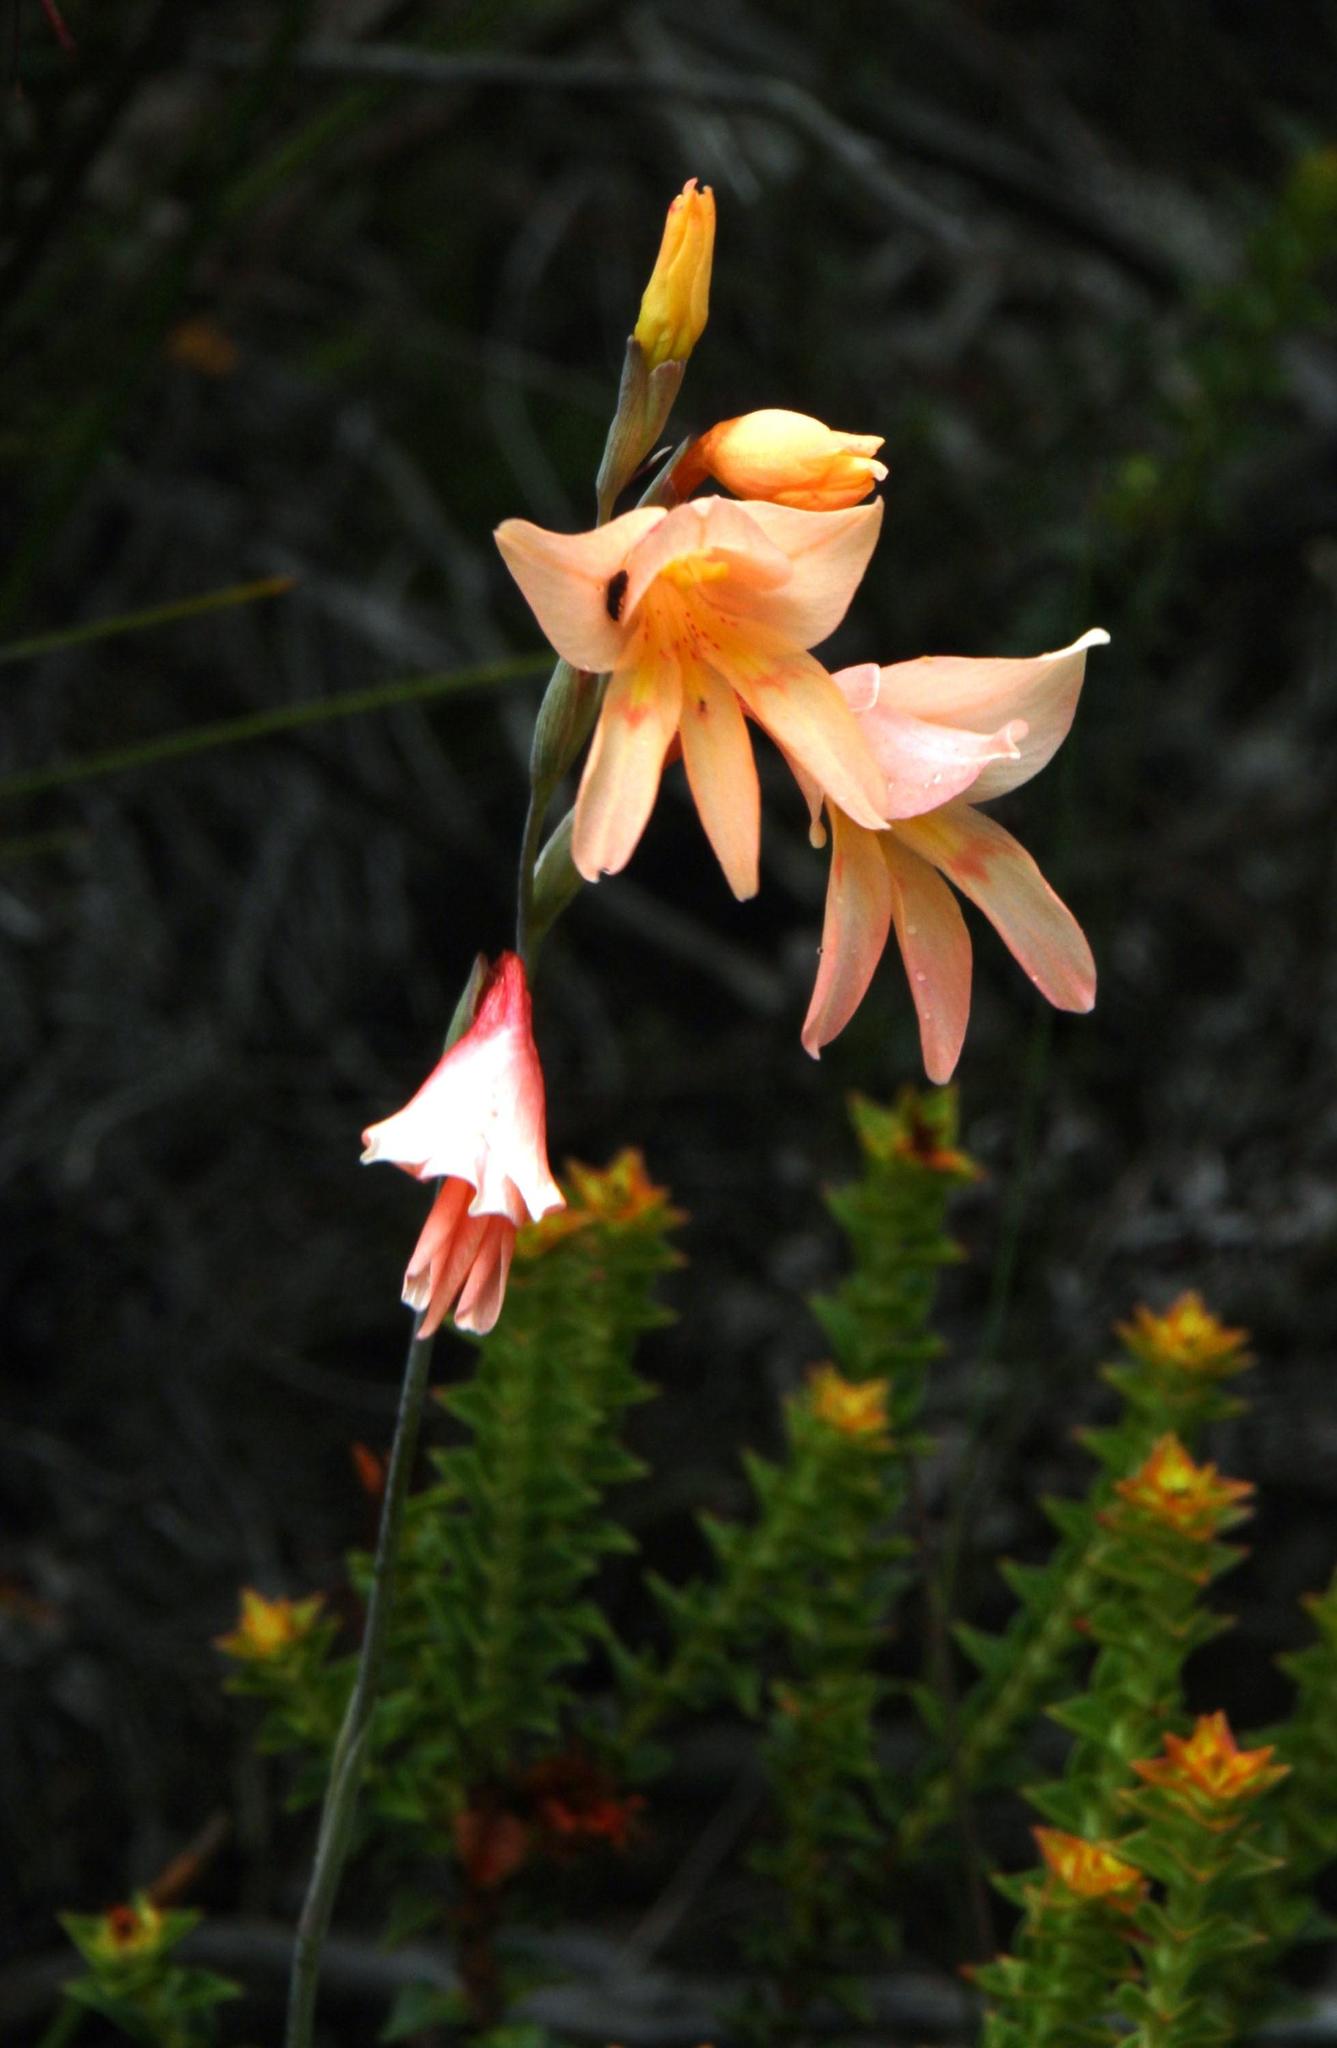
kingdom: Plantae
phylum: Tracheophyta
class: Liliopsida
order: Asparagales
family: Iridaceae
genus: Gladiolus
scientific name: Gladiolus monticola
